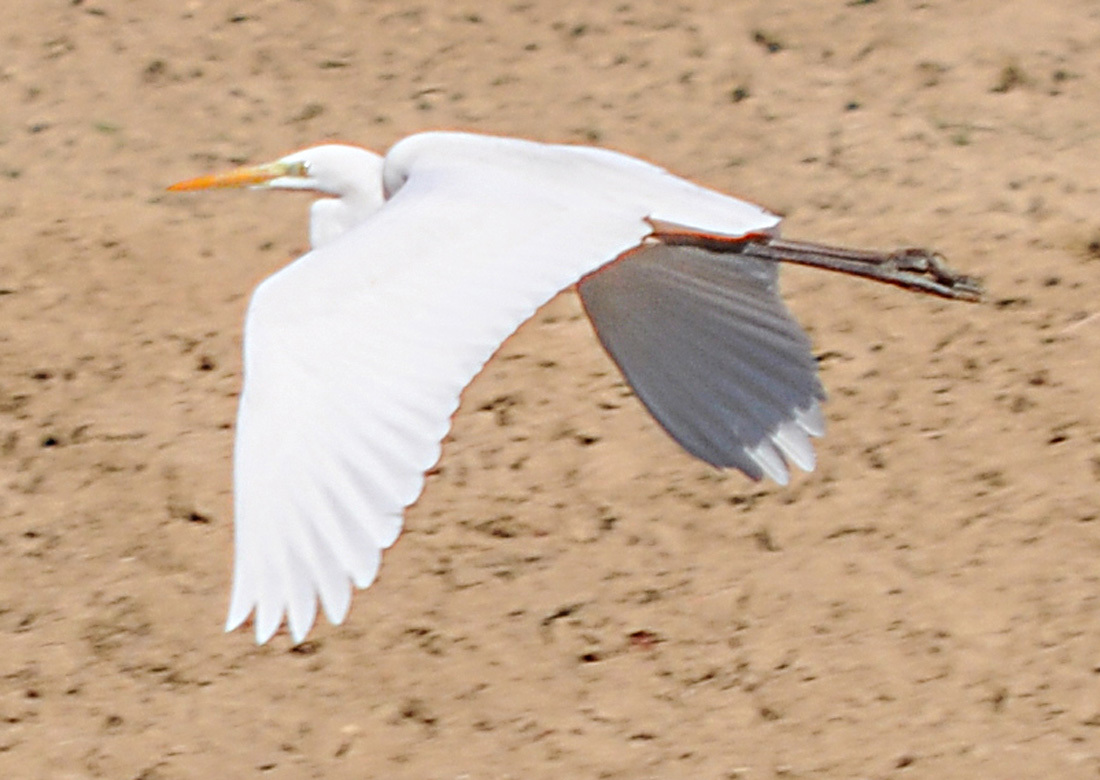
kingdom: Animalia
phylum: Chordata
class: Aves
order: Pelecaniformes
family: Ardeidae
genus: Ardea
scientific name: Ardea alba
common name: Great egret
